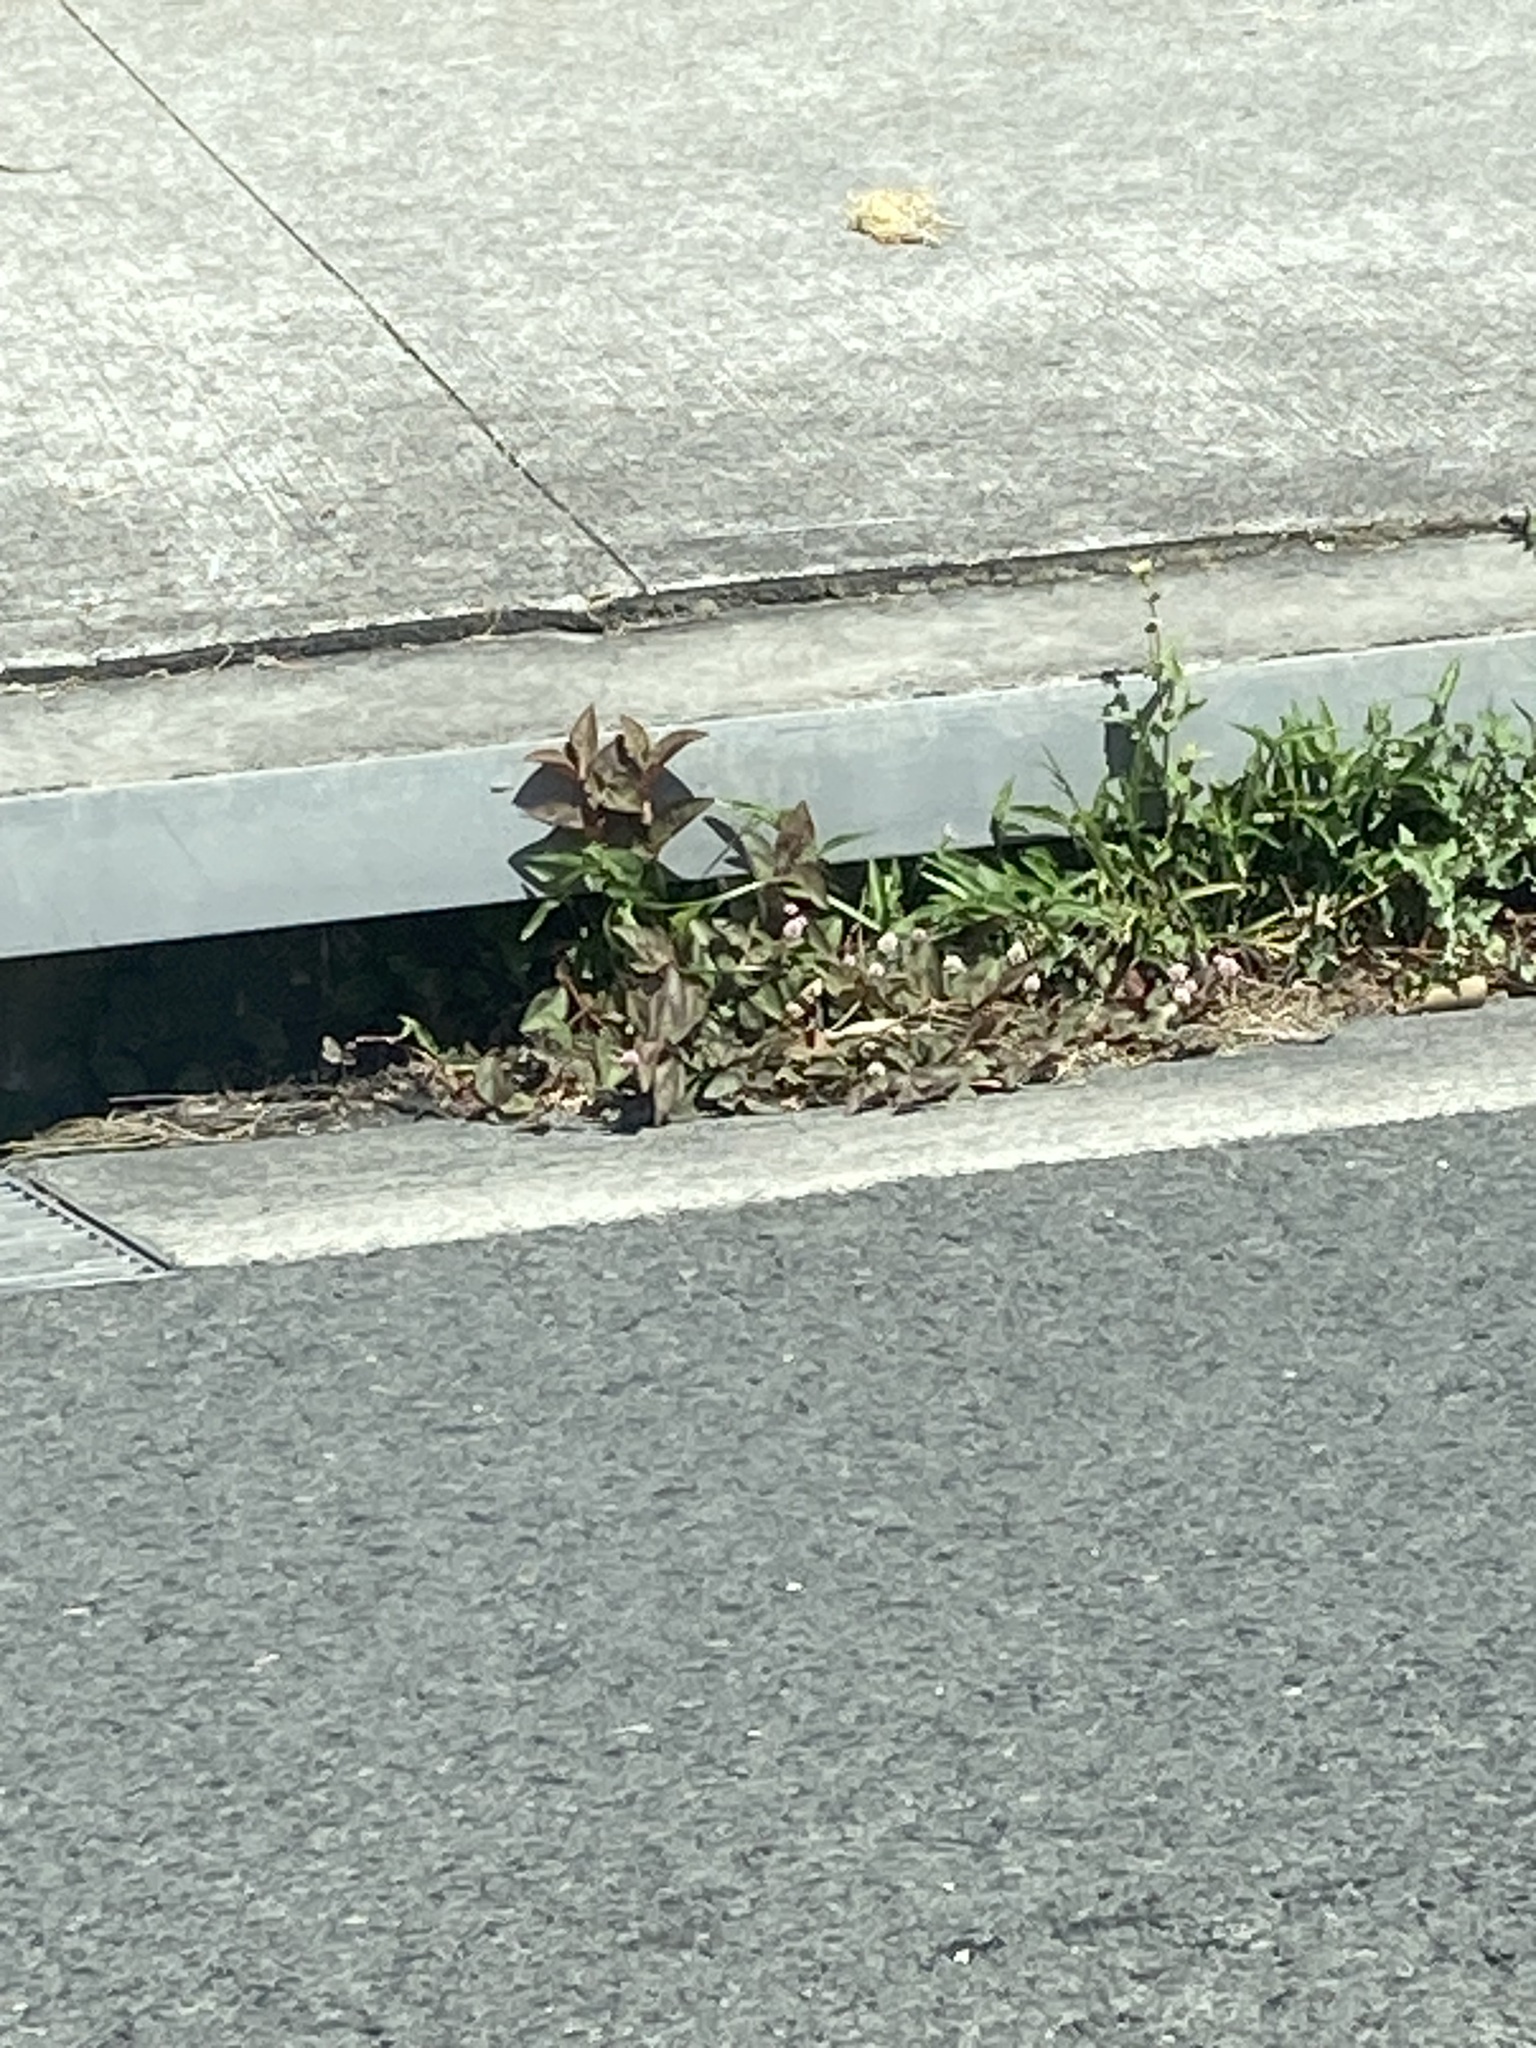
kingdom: Plantae
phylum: Tracheophyta
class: Magnoliopsida
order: Caryophyllales
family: Polygonaceae
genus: Persicaria
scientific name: Persicaria capitata
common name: Pinkhead smartweed
